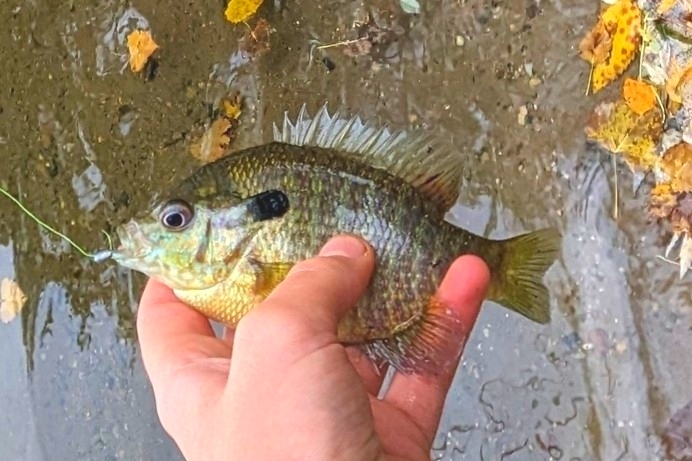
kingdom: Animalia
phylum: Chordata
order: Perciformes
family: Centrarchidae
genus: Lepomis
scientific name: Lepomis
